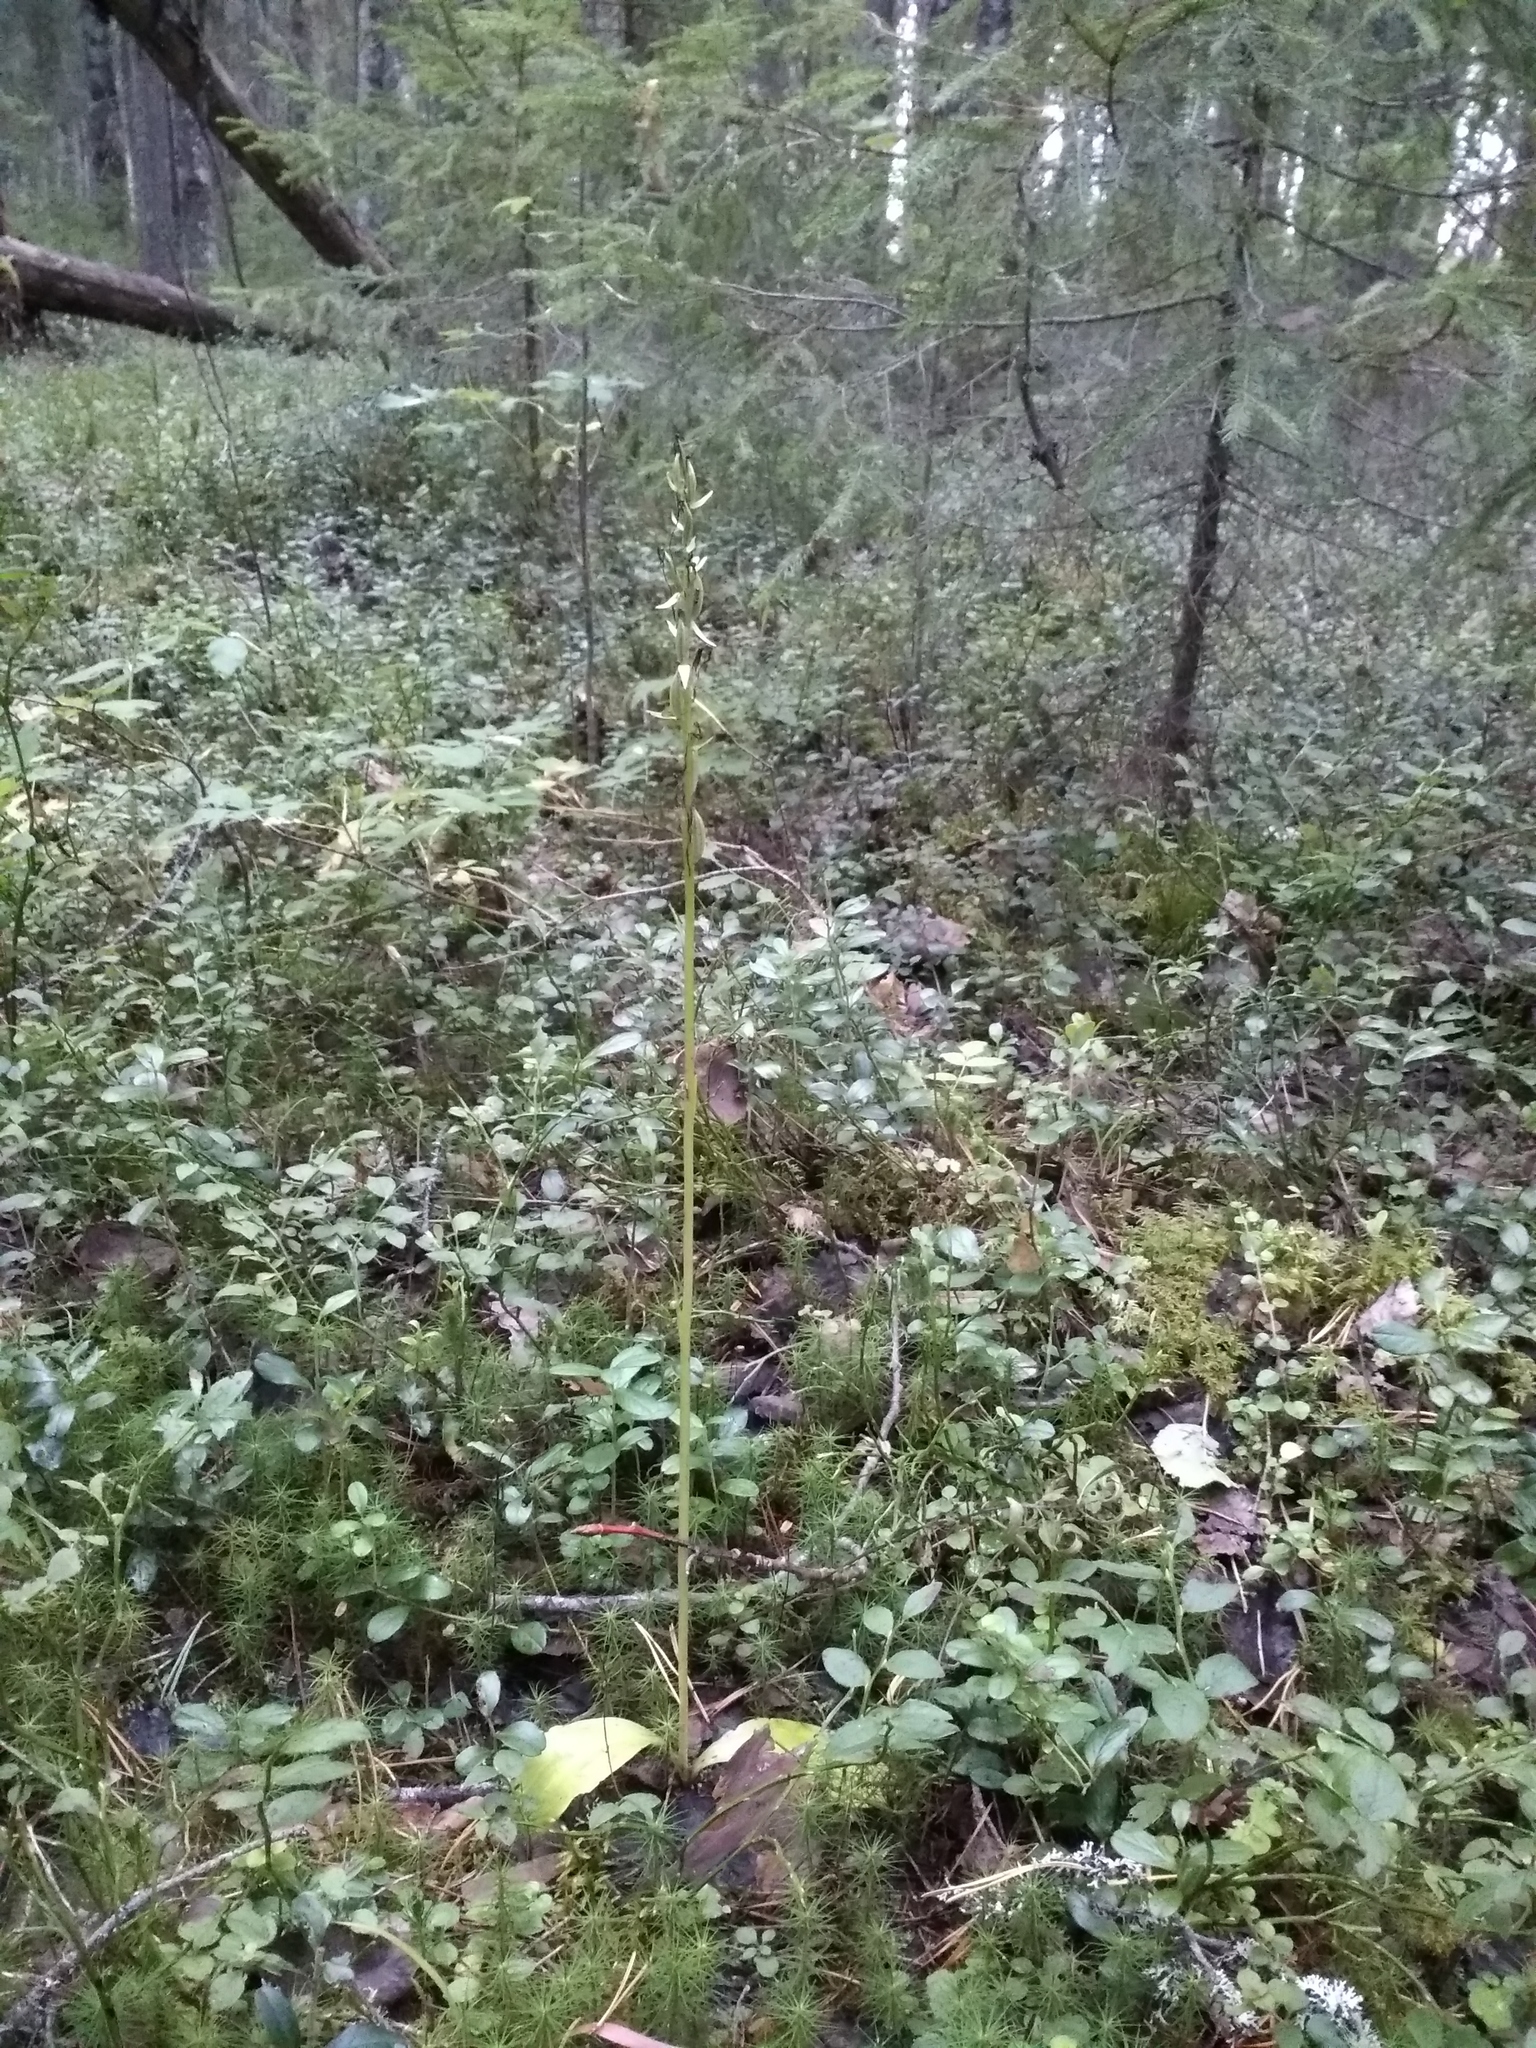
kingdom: Plantae
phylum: Tracheophyta
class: Liliopsida
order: Asparagales
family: Orchidaceae
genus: Platanthera
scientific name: Platanthera bifolia
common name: Lesser butterfly-orchid
